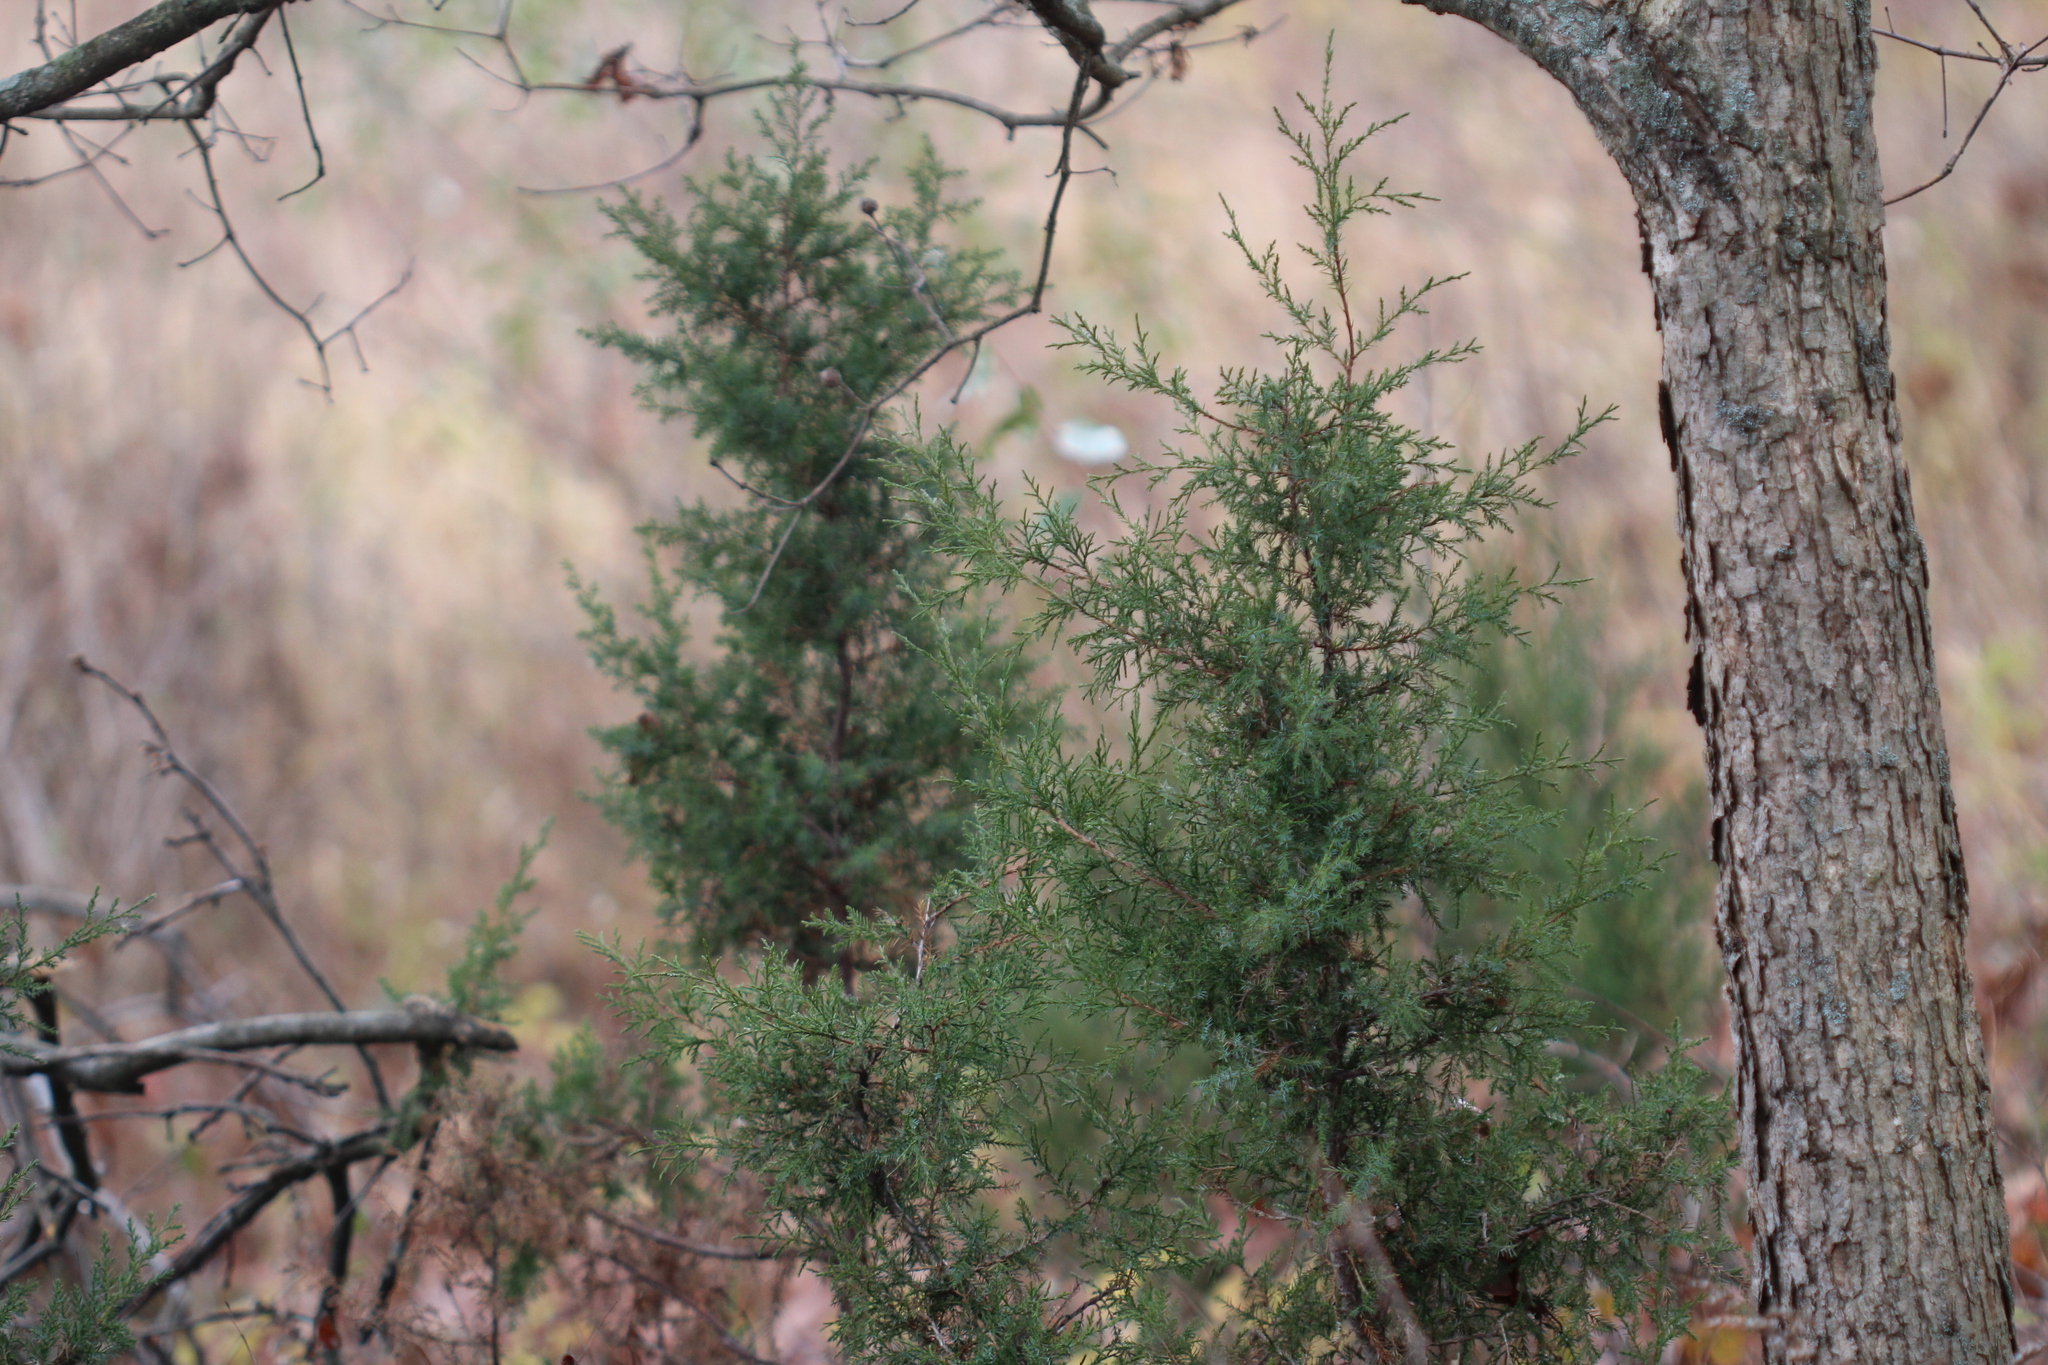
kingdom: Plantae
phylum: Tracheophyta
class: Pinopsida
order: Pinales
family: Cupressaceae
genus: Juniperus
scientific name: Juniperus virginiana
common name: Red juniper
